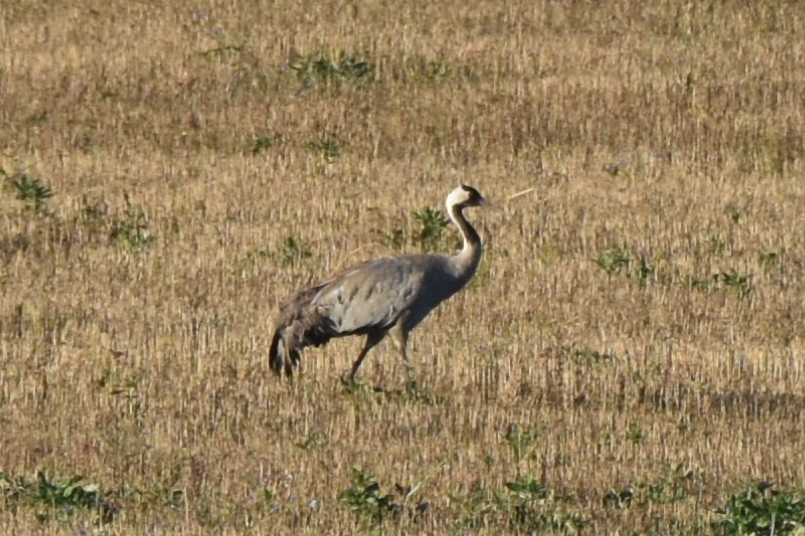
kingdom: Animalia
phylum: Chordata
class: Aves
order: Gruiformes
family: Gruidae
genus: Grus
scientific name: Grus grus
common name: Common crane
